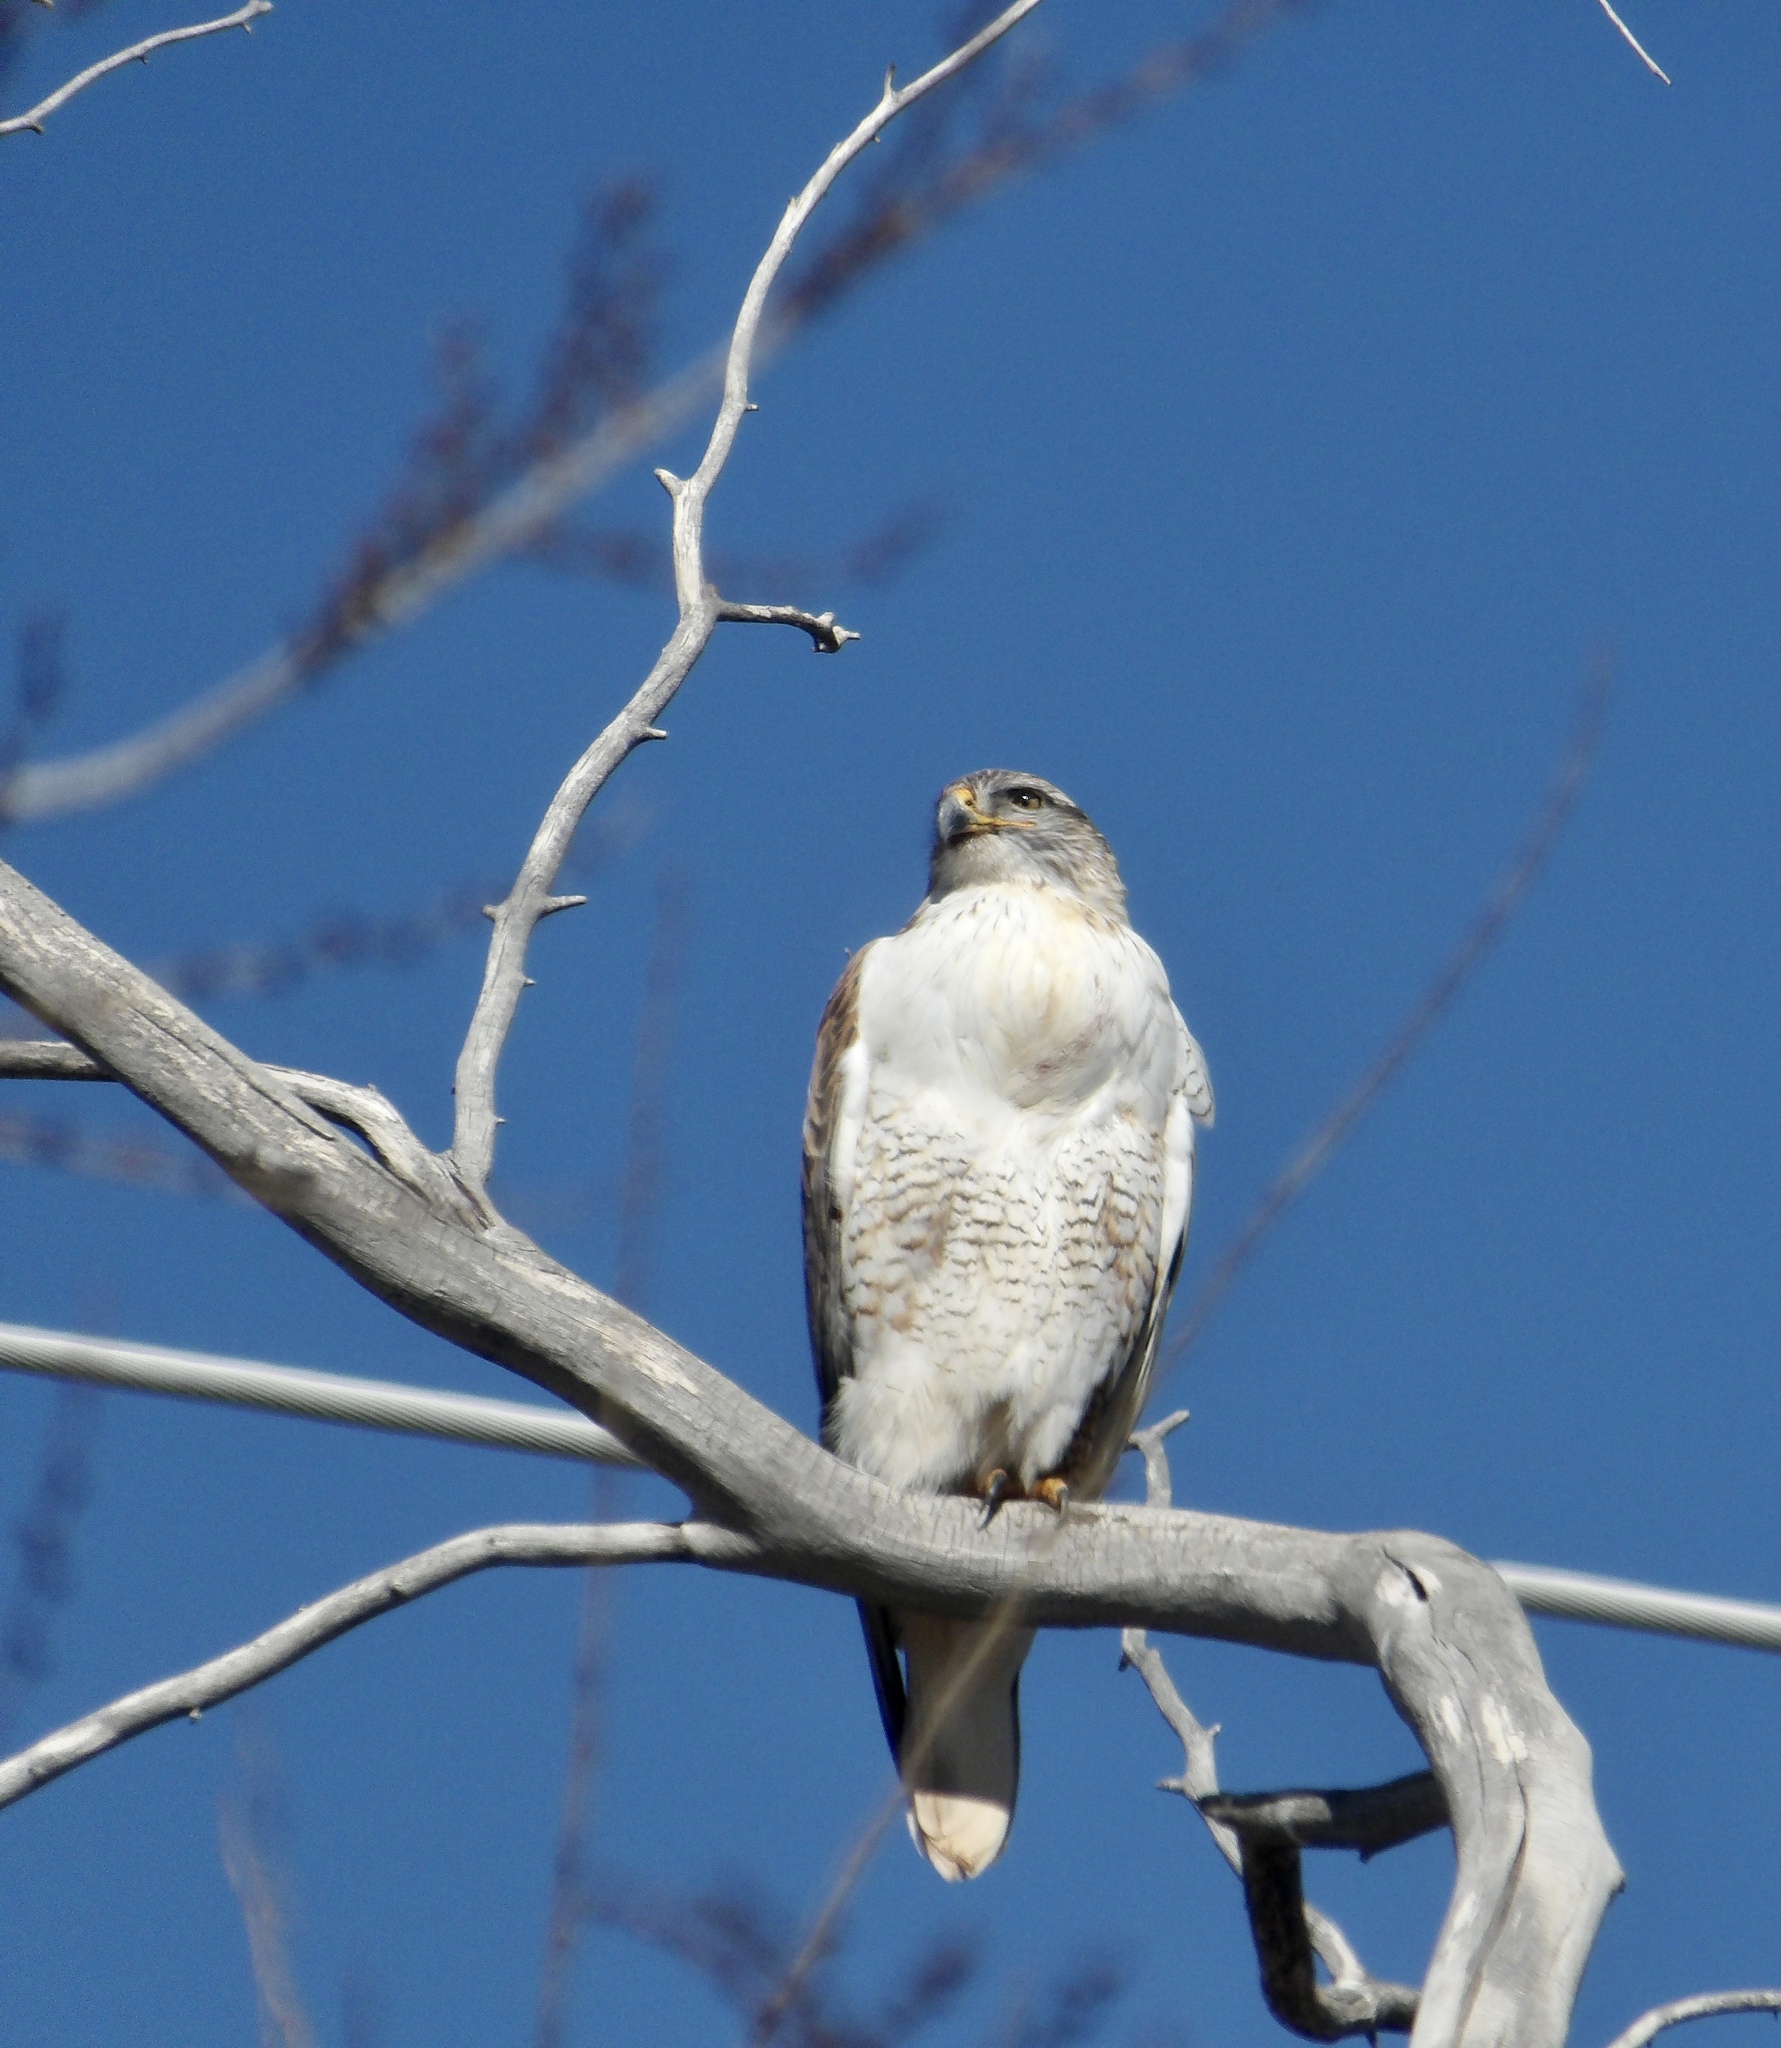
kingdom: Animalia
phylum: Chordata
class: Aves
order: Accipitriformes
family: Accipitridae
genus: Buteo
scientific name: Buteo regalis
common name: Ferruginous hawk
